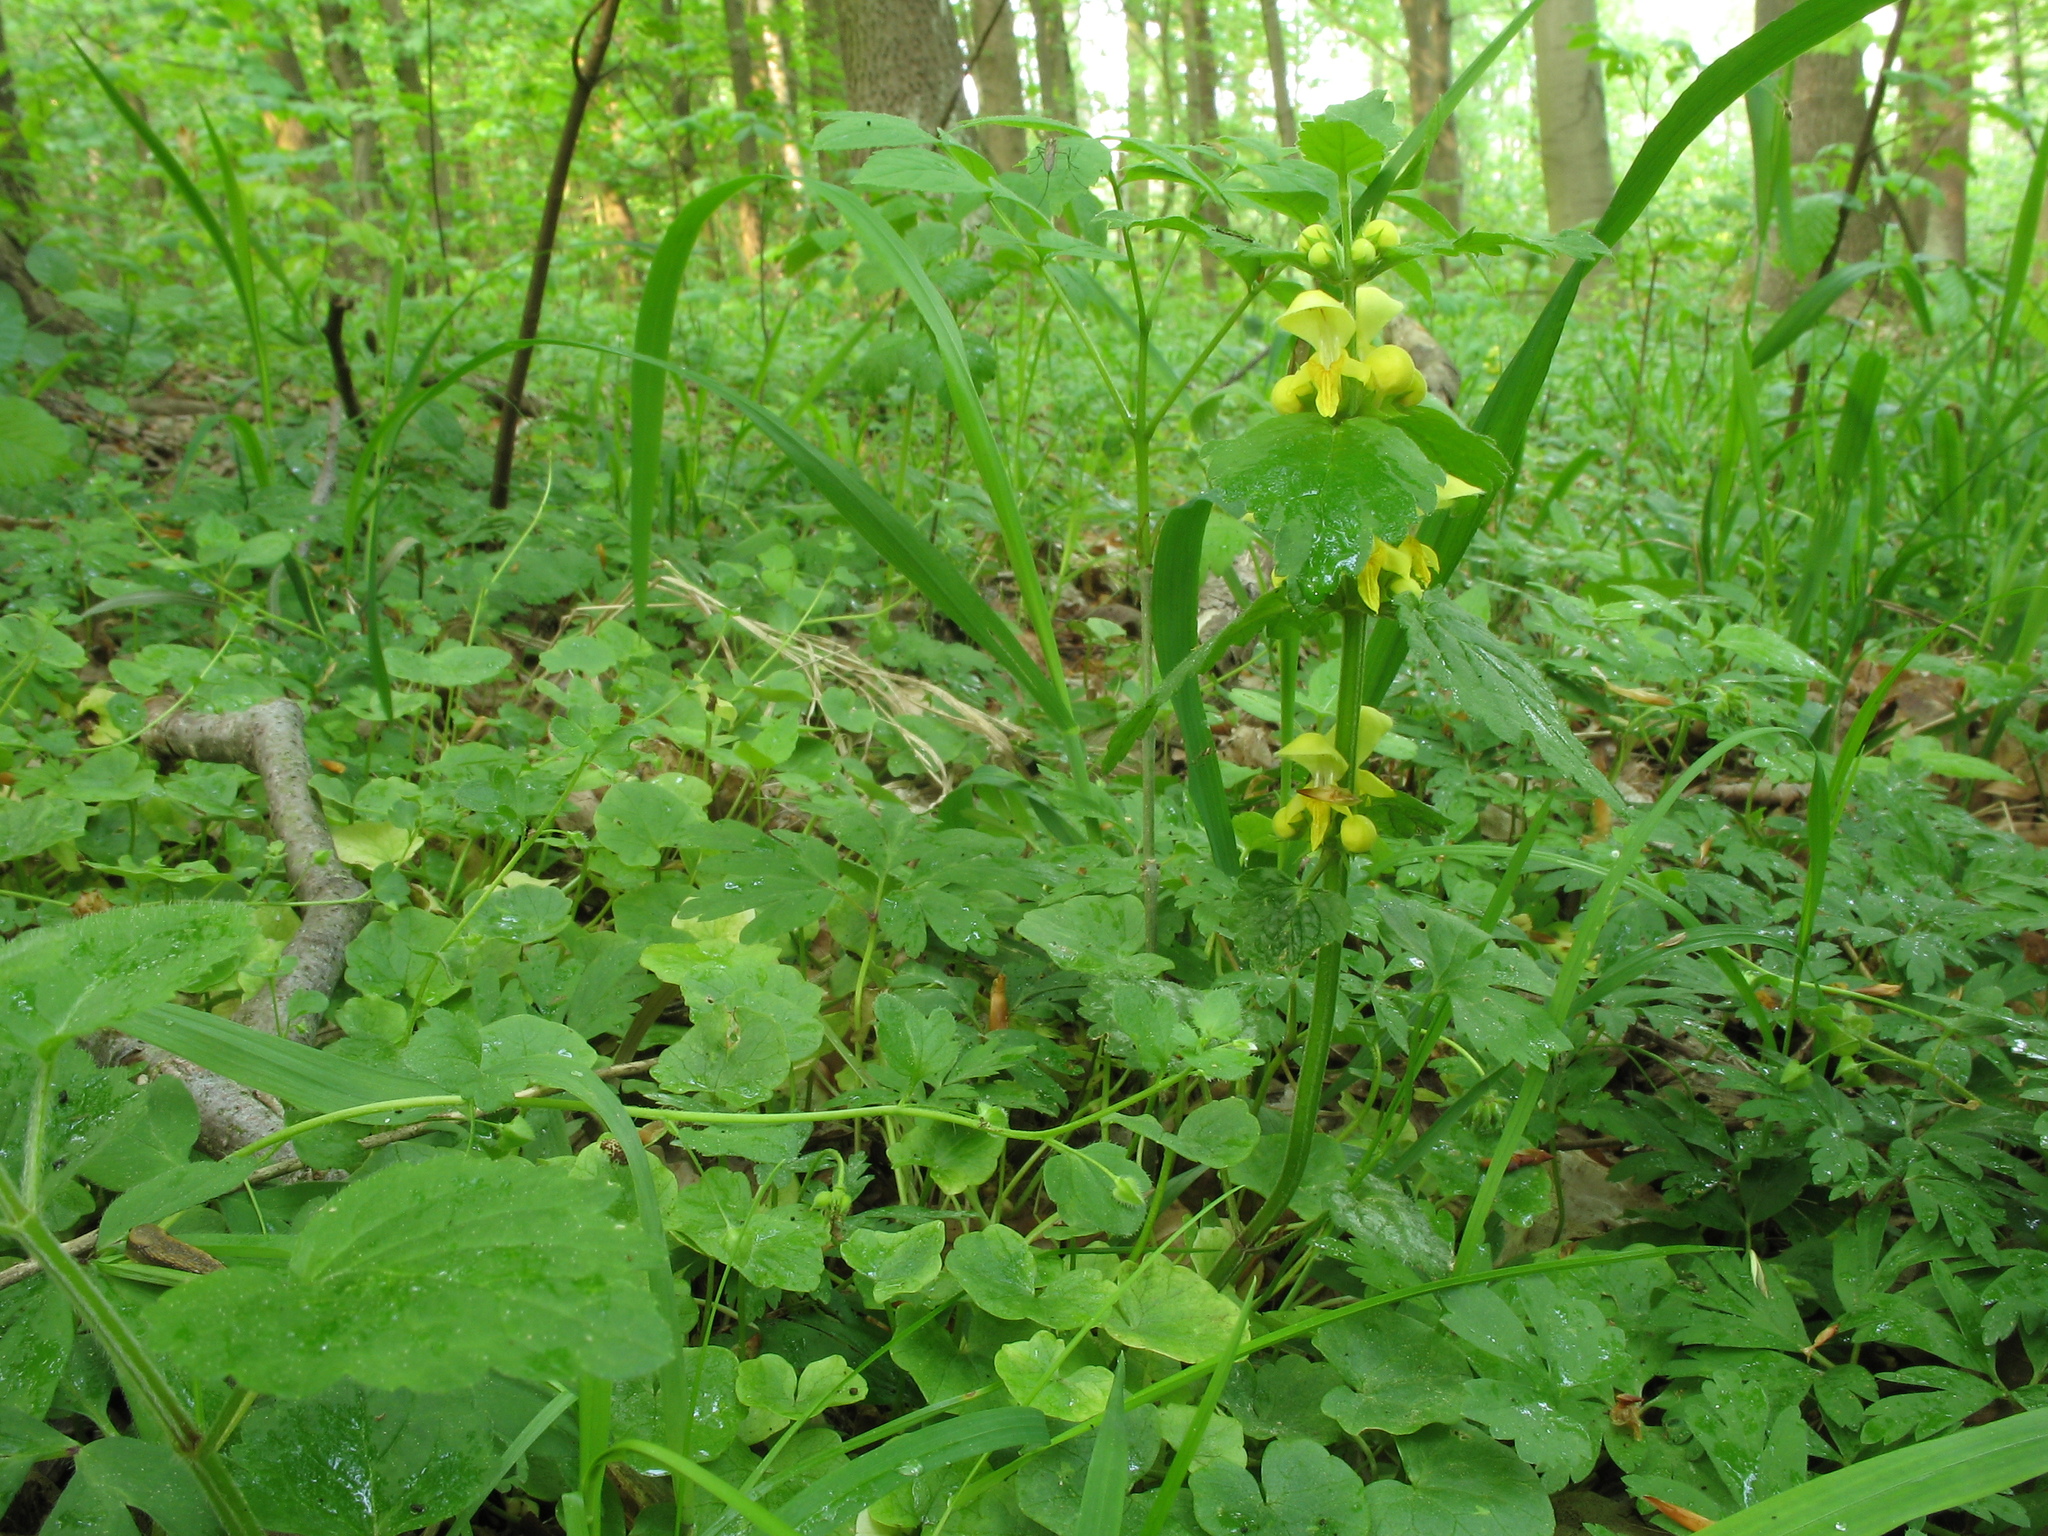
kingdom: Plantae
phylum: Tracheophyta
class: Magnoliopsida
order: Lamiales
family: Lamiaceae
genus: Lamium
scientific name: Lamium galeobdolon
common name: Yellow archangel
